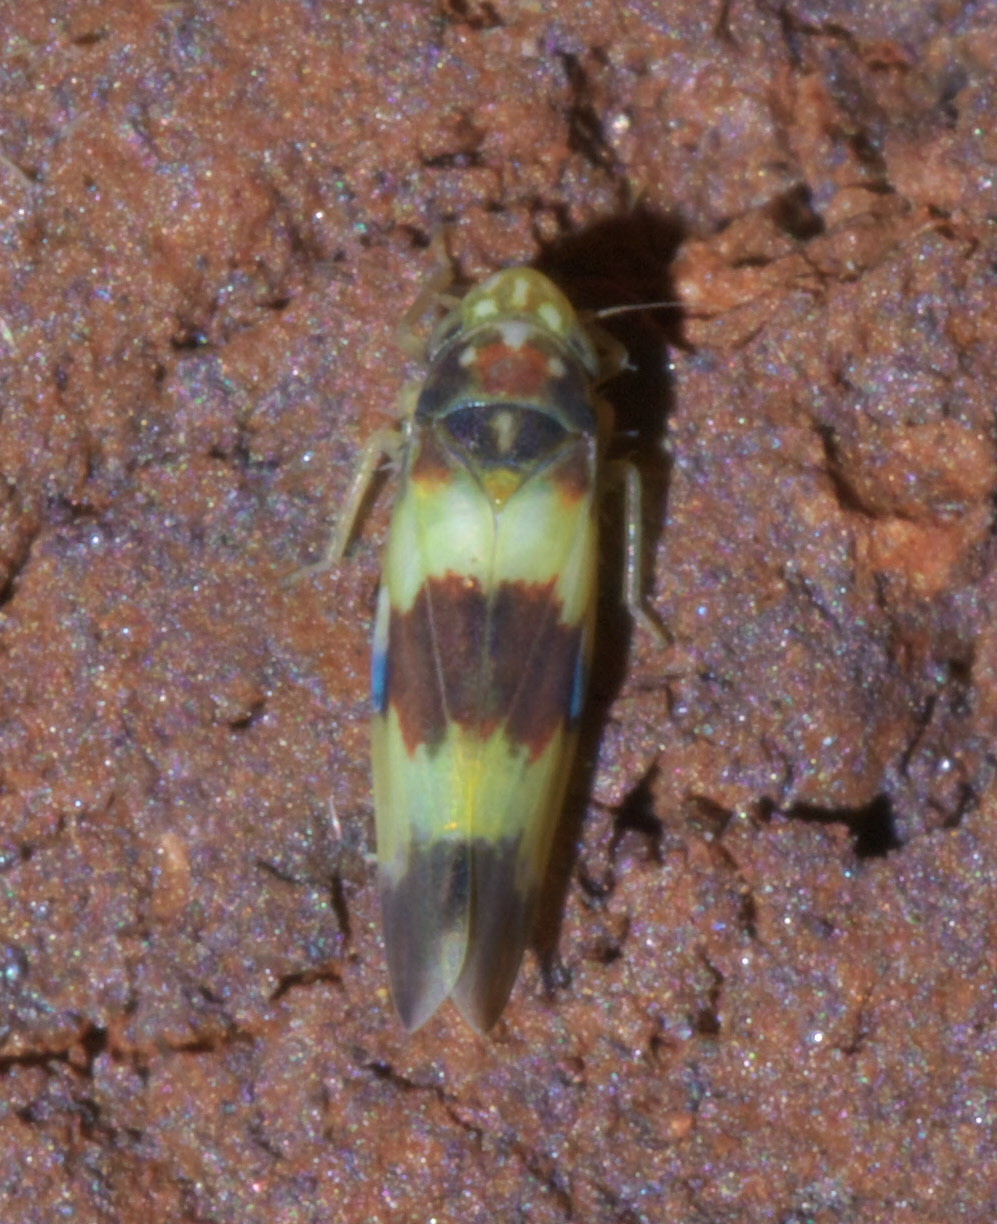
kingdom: Animalia
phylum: Arthropoda
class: Insecta
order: Hemiptera
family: Cicadellidae
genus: Erythroneura
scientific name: Erythroneura rosa
